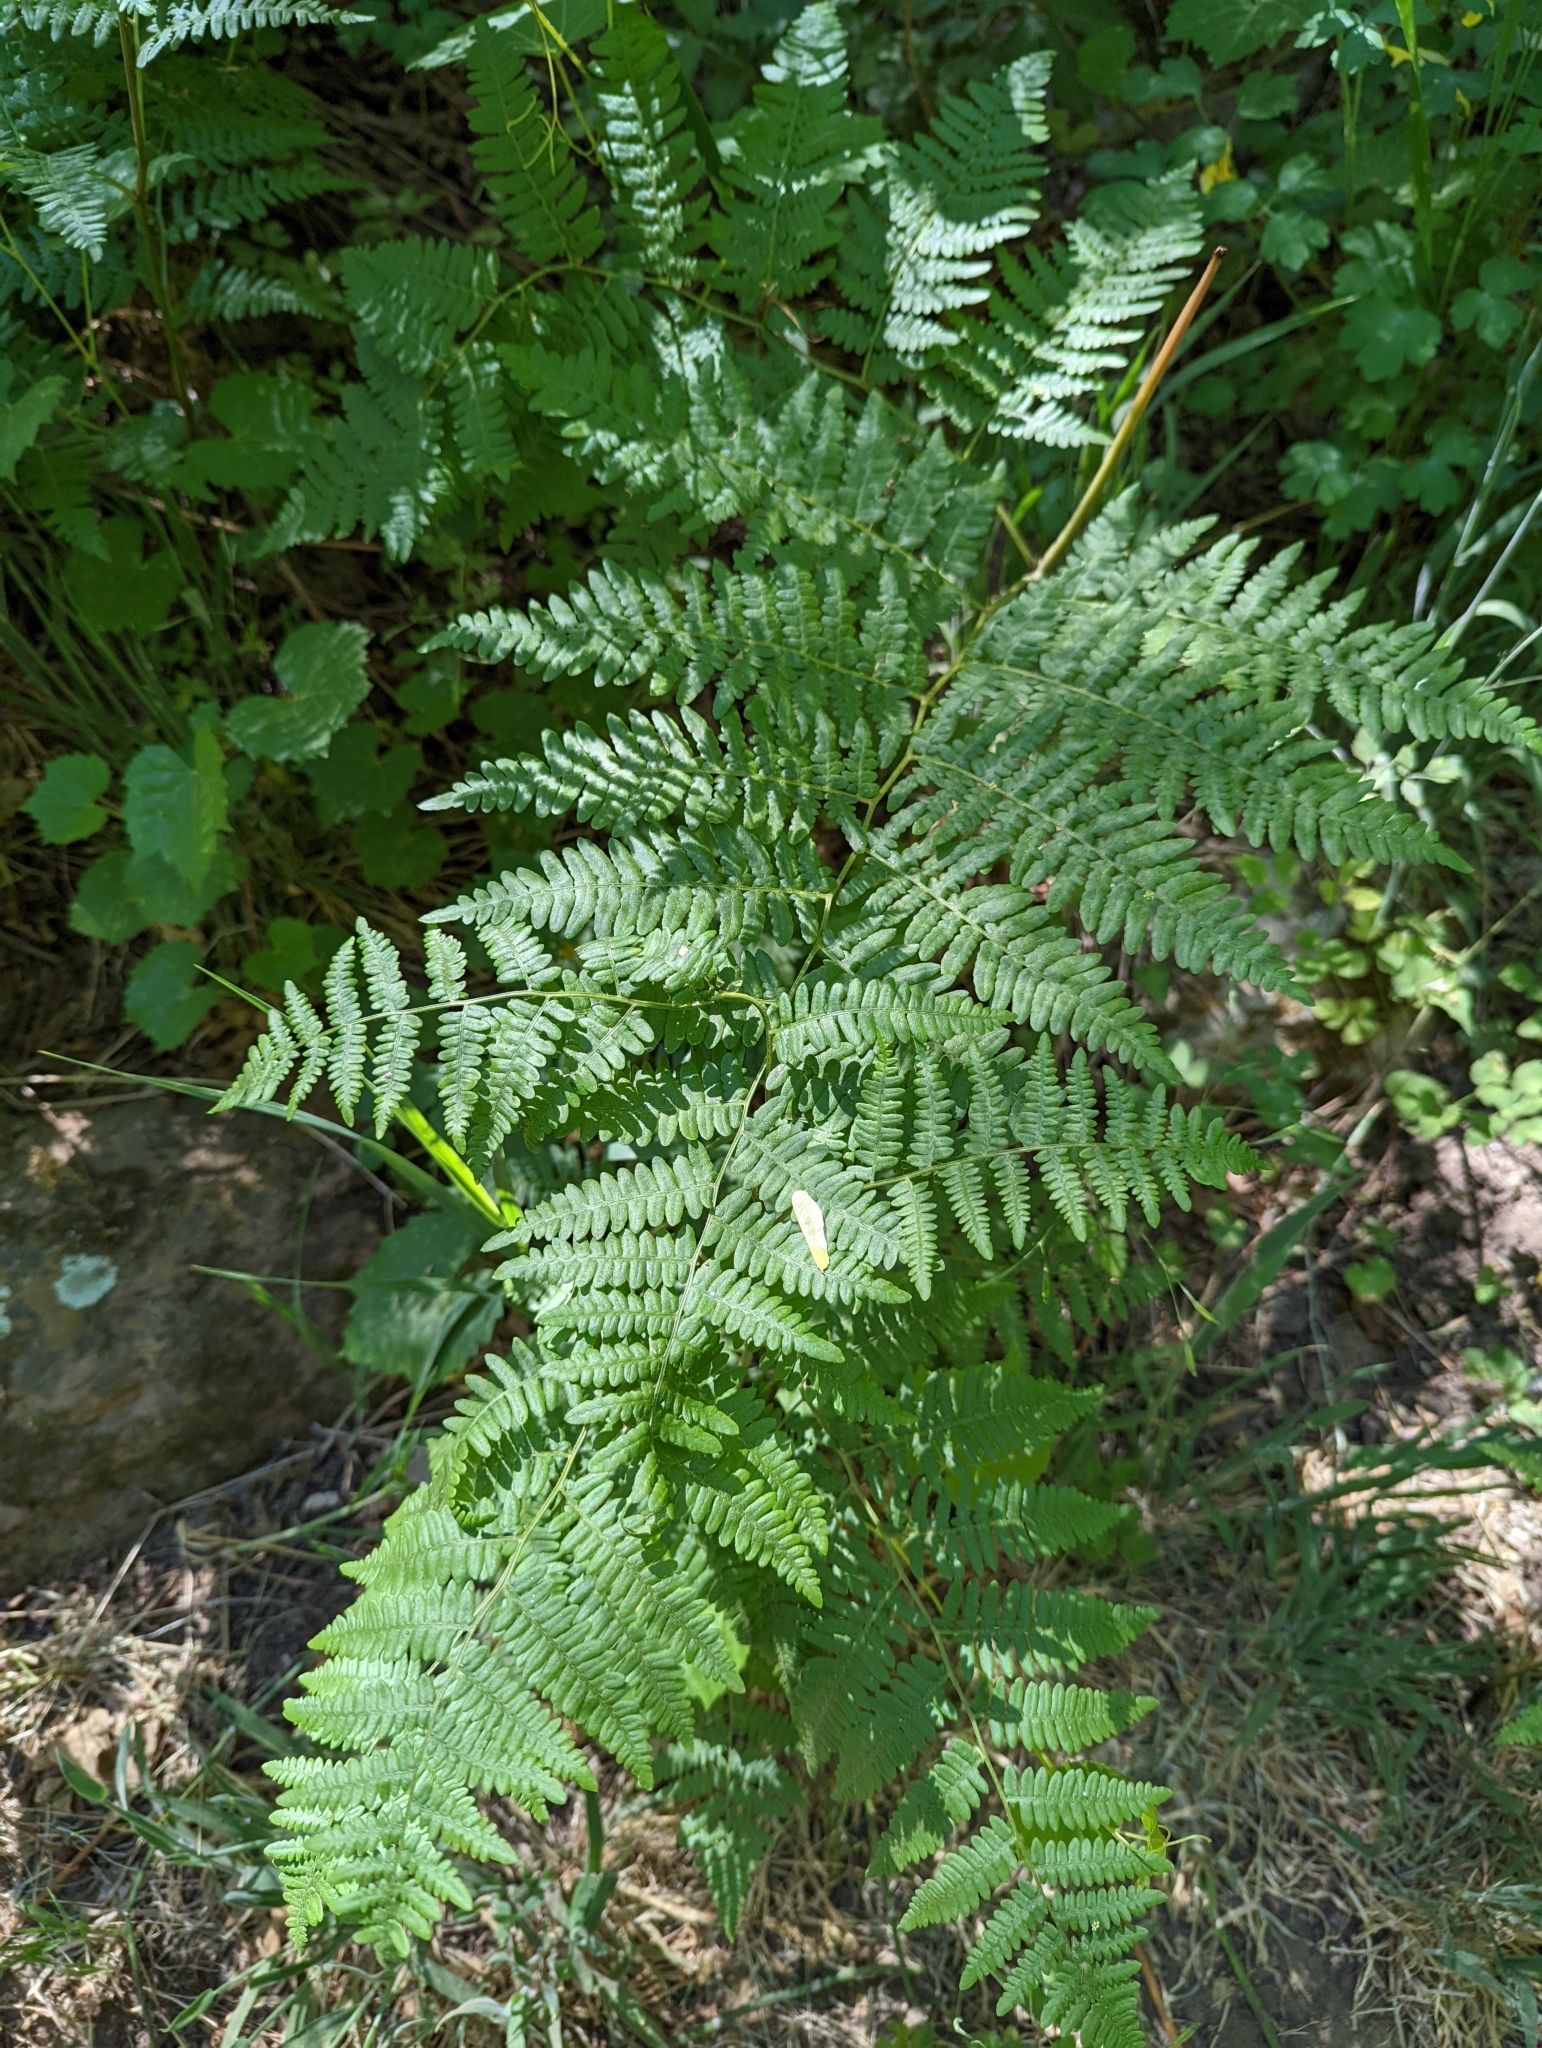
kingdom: Plantae
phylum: Tracheophyta
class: Polypodiopsida
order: Polypodiales
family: Dennstaedtiaceae
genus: Pteridium
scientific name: Pteridium aquilinum
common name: Bracken
